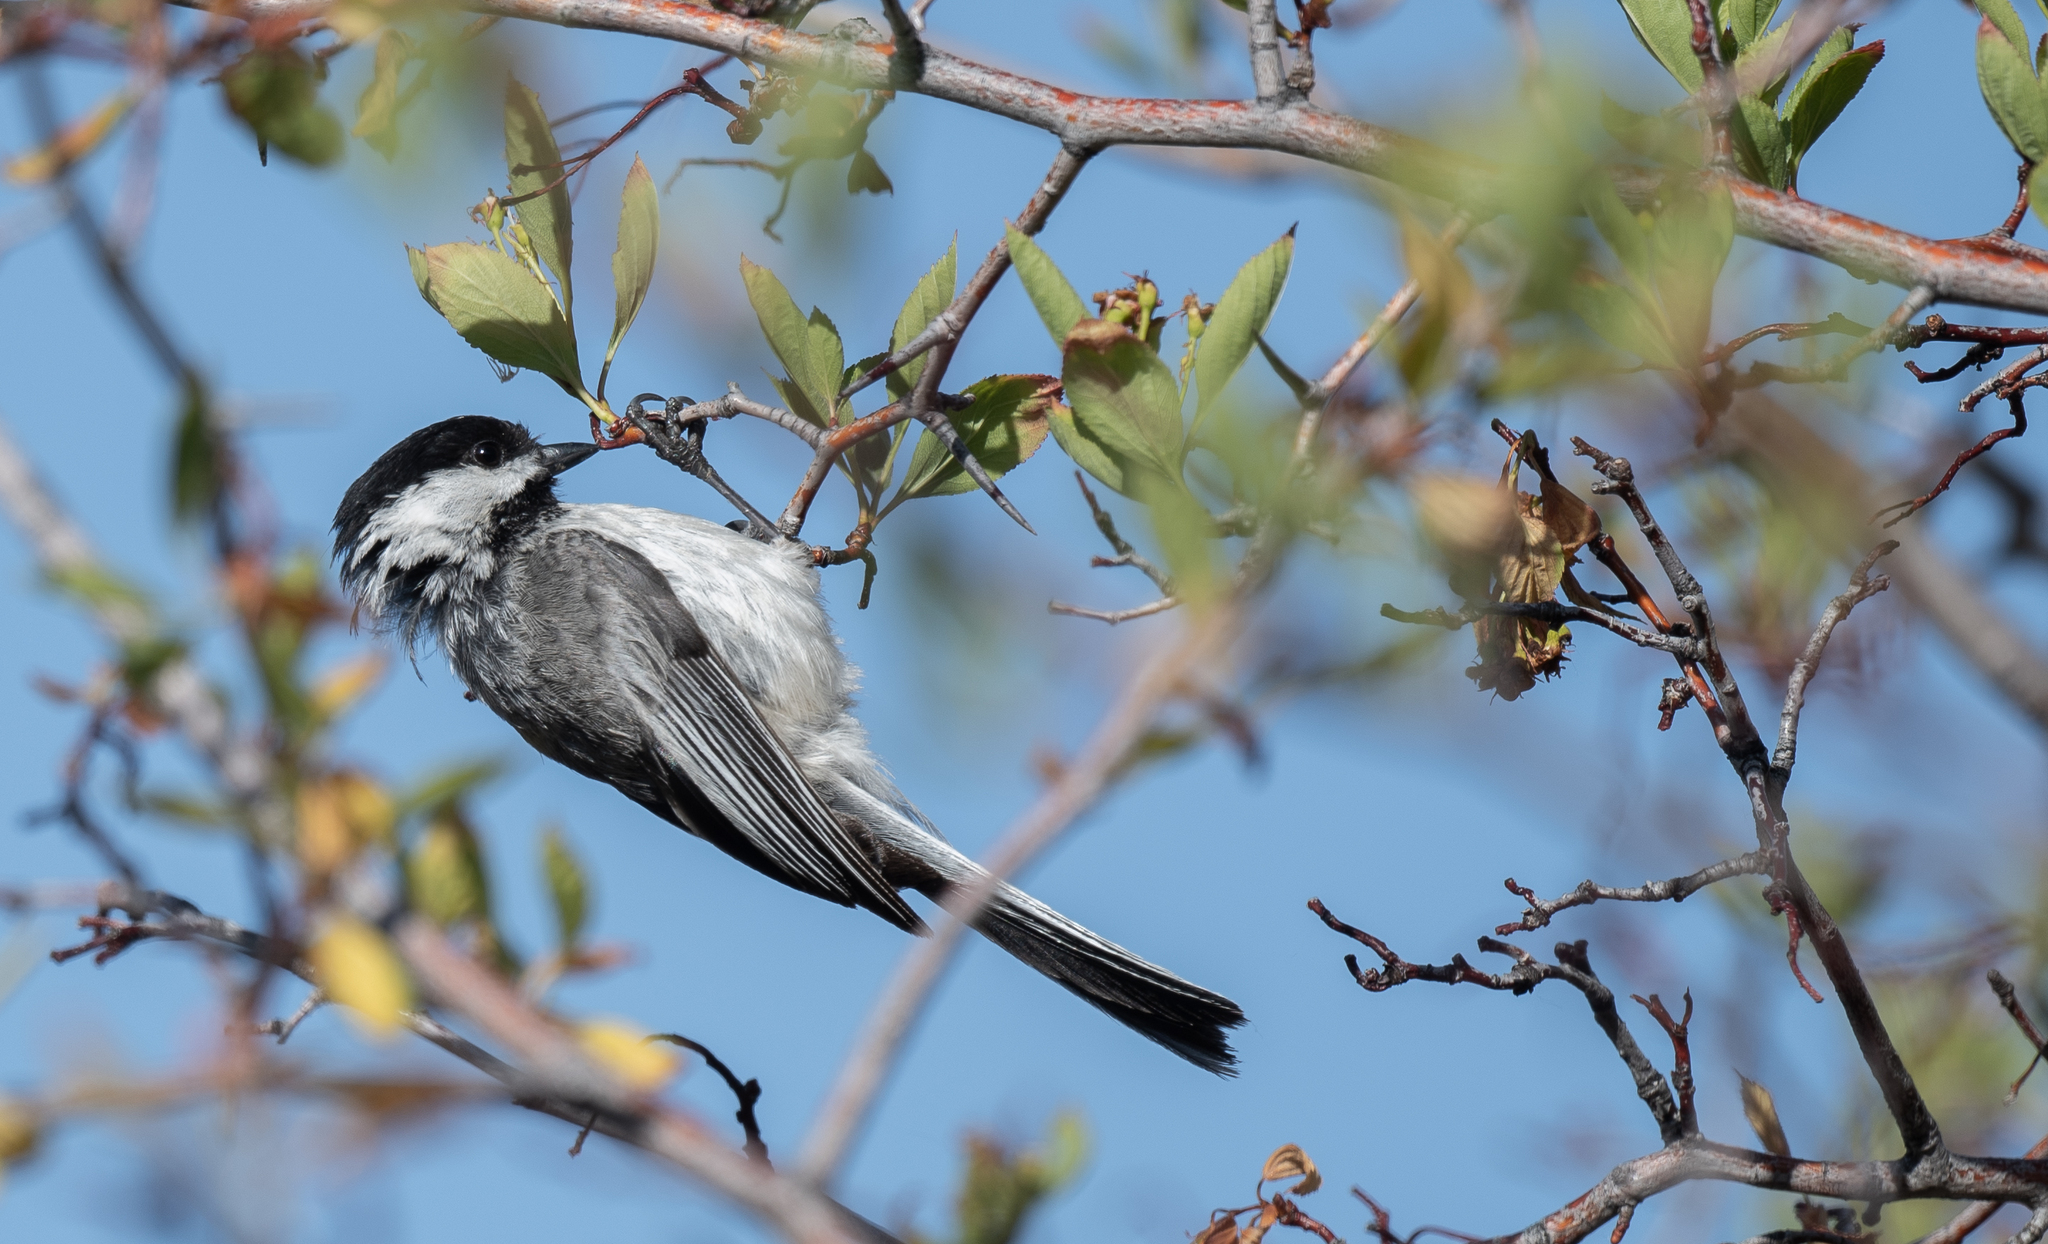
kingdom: Animalia
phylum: Chordata
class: Aves
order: Passeriformes
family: Paridae
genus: Poecile
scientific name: Poecile atricapillus
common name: Black-capped chickadee
